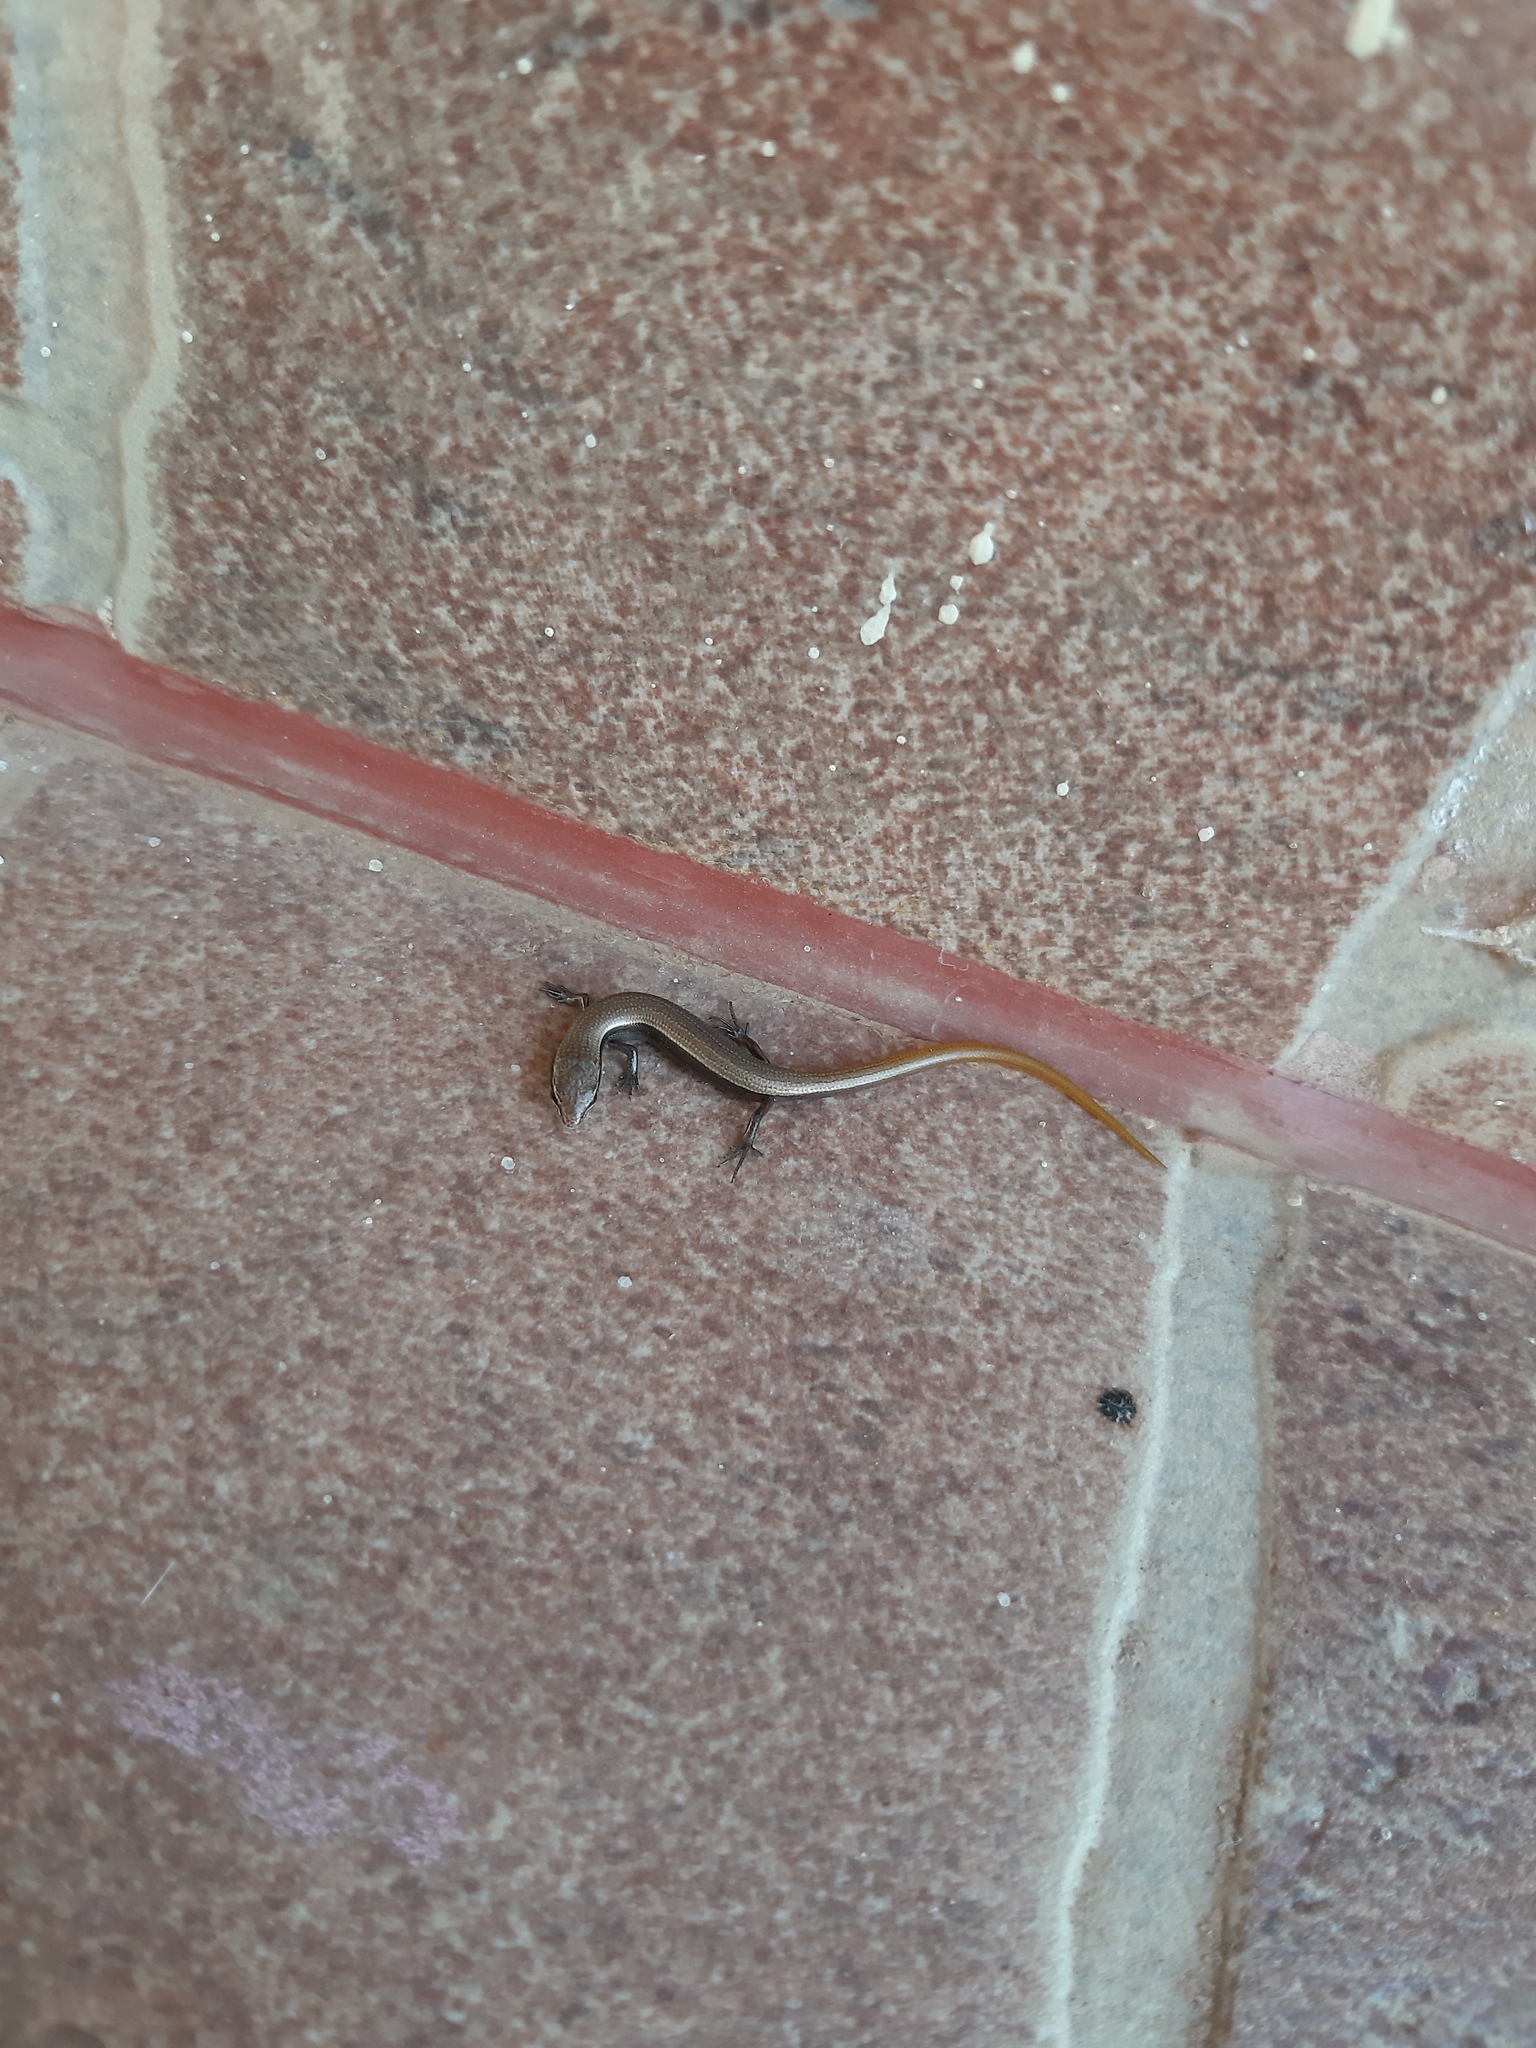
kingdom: Animalia
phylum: Chordata
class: Squamata
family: Scincidae
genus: Ablepharus
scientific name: Ablepharus kitaibelii
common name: Juniper skink
